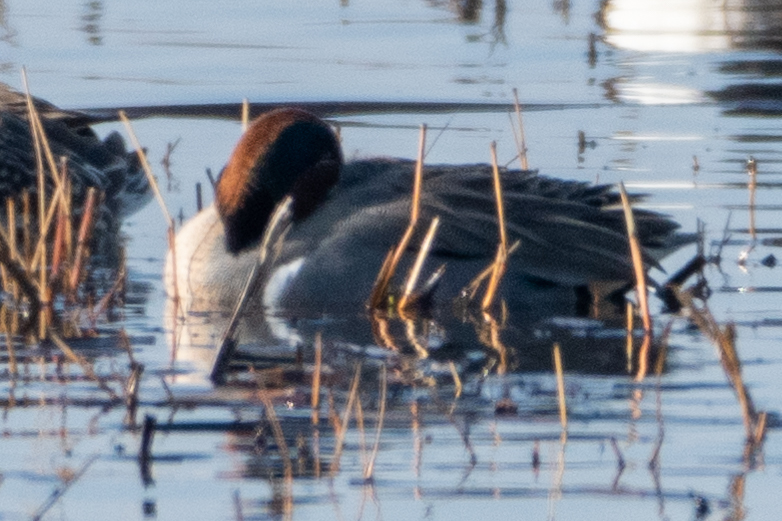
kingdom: Animalia
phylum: Chordata
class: Aves
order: Anseriformes
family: Anatidae
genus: Anas
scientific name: Anas crecca
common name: Eurasian teal
